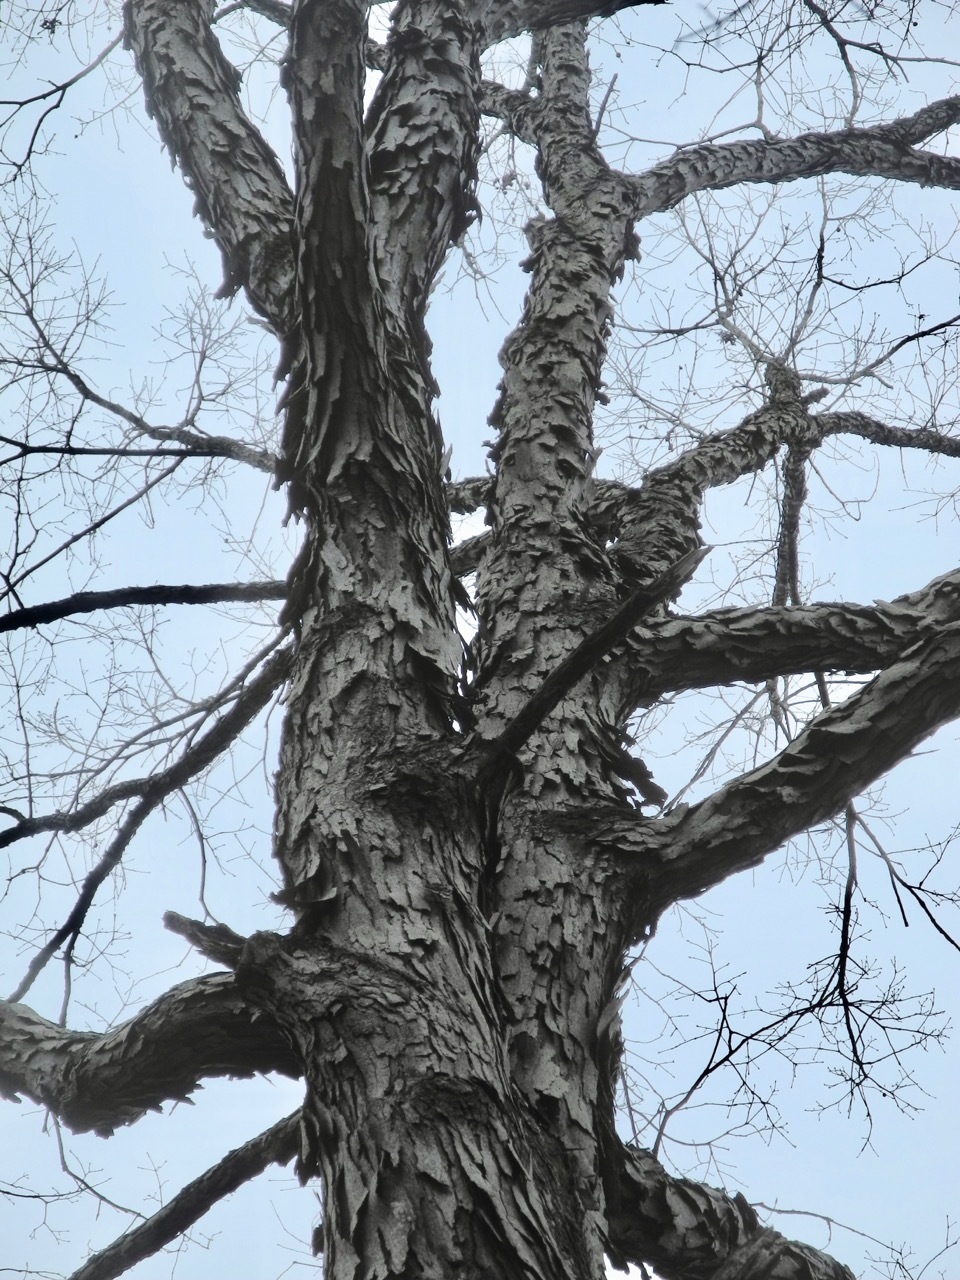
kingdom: Plantae
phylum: Tracheophyta
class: Magnoliopsida
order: Fagales
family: Juglandaceae
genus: Carya
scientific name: Carya ovata
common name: Shagbark hickory
